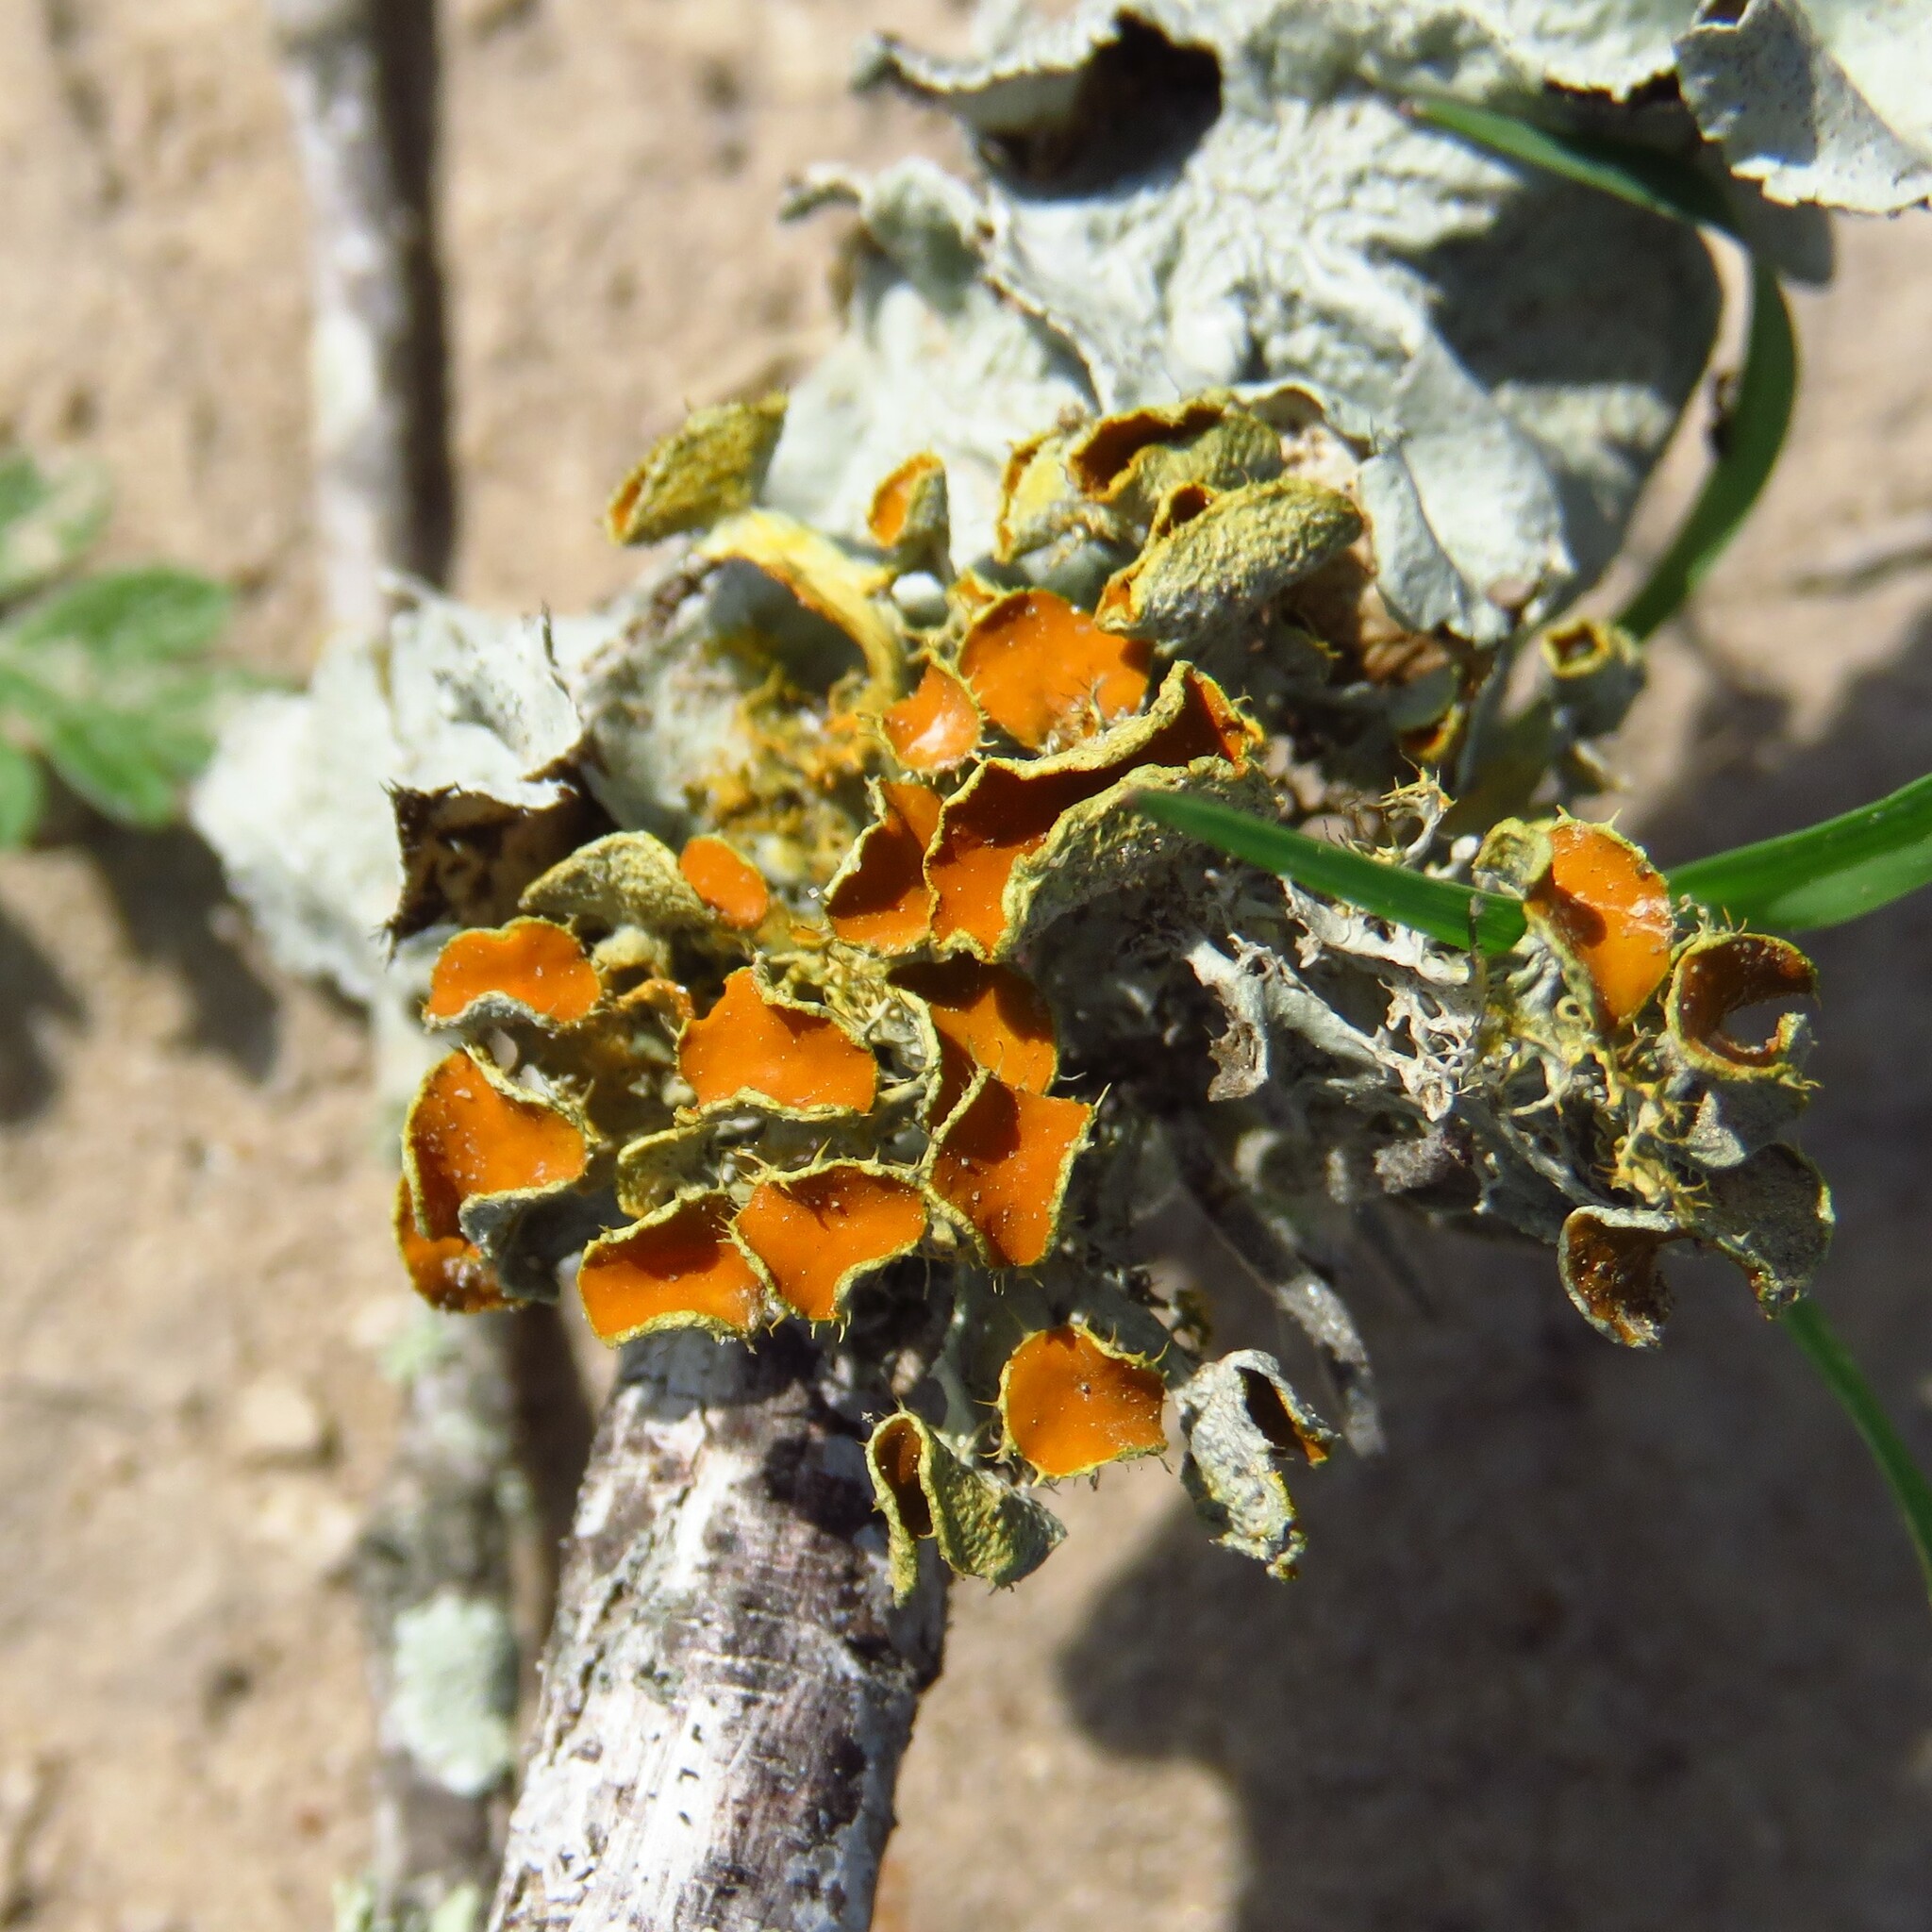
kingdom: Fungi
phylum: Ascomycota
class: Lecanoromycetes
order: Teloschistales
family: Teloschistaceae
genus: Niorma
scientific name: Niorma chrysophthalma
